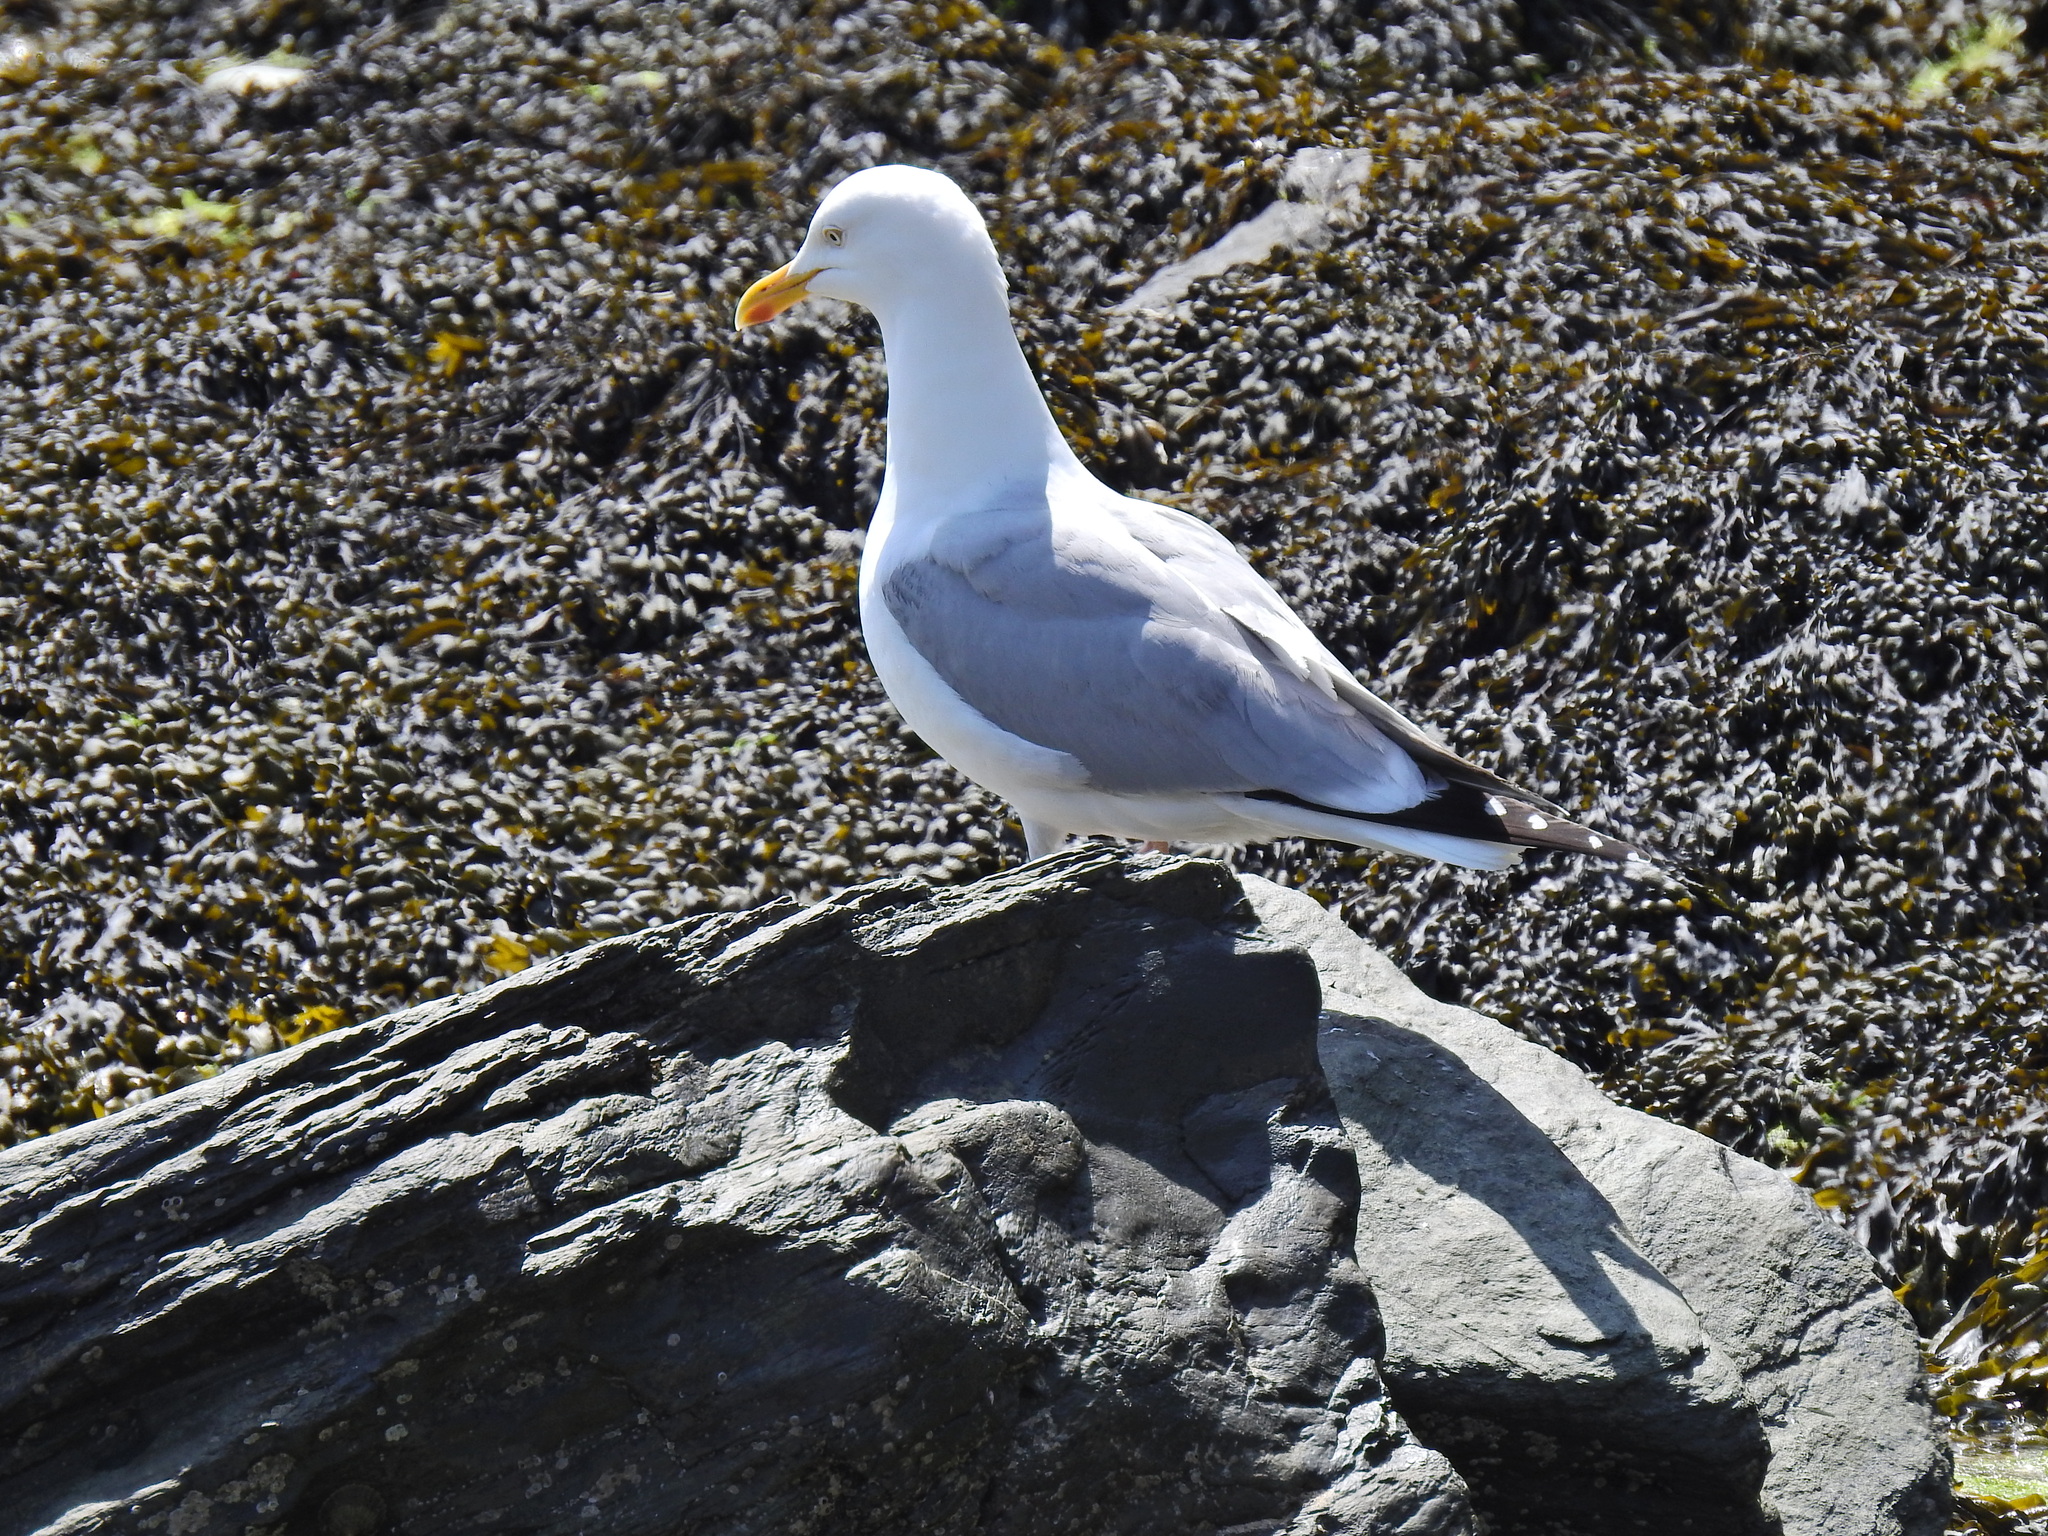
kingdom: Animalia
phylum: Chordata
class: Aves
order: Charadriiformes
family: Laridae
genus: Larus
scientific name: Larus argentatus
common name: Herring gull
